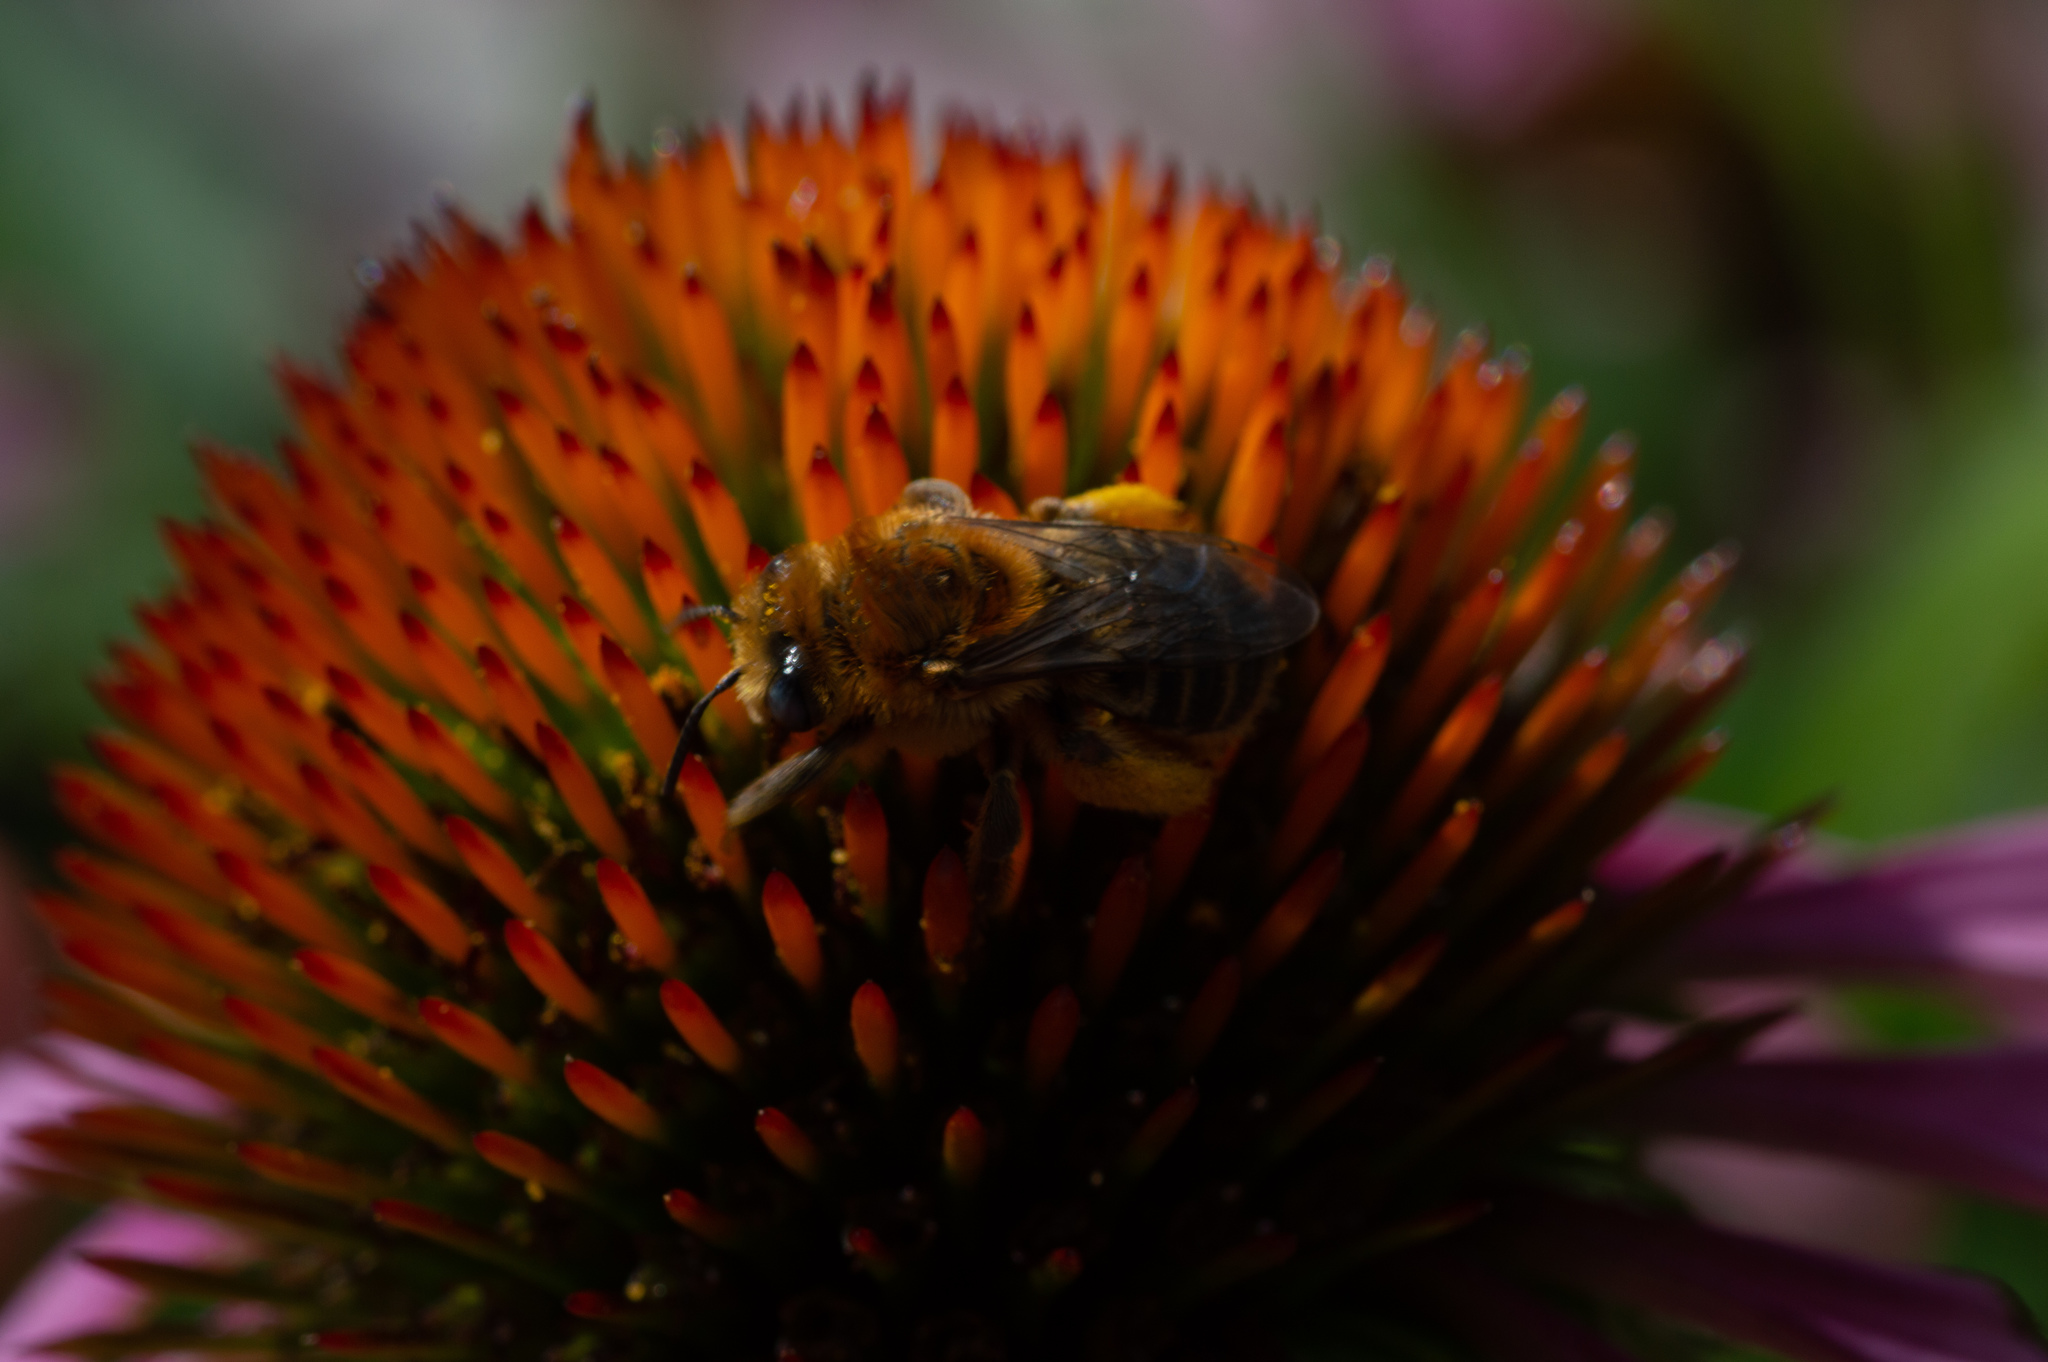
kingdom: Animalia
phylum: Arthropoda
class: Insecta
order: Hymenoptera
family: Apidae
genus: Melissodes
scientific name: Melissodes trinodis
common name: Dark-veined longhorn
